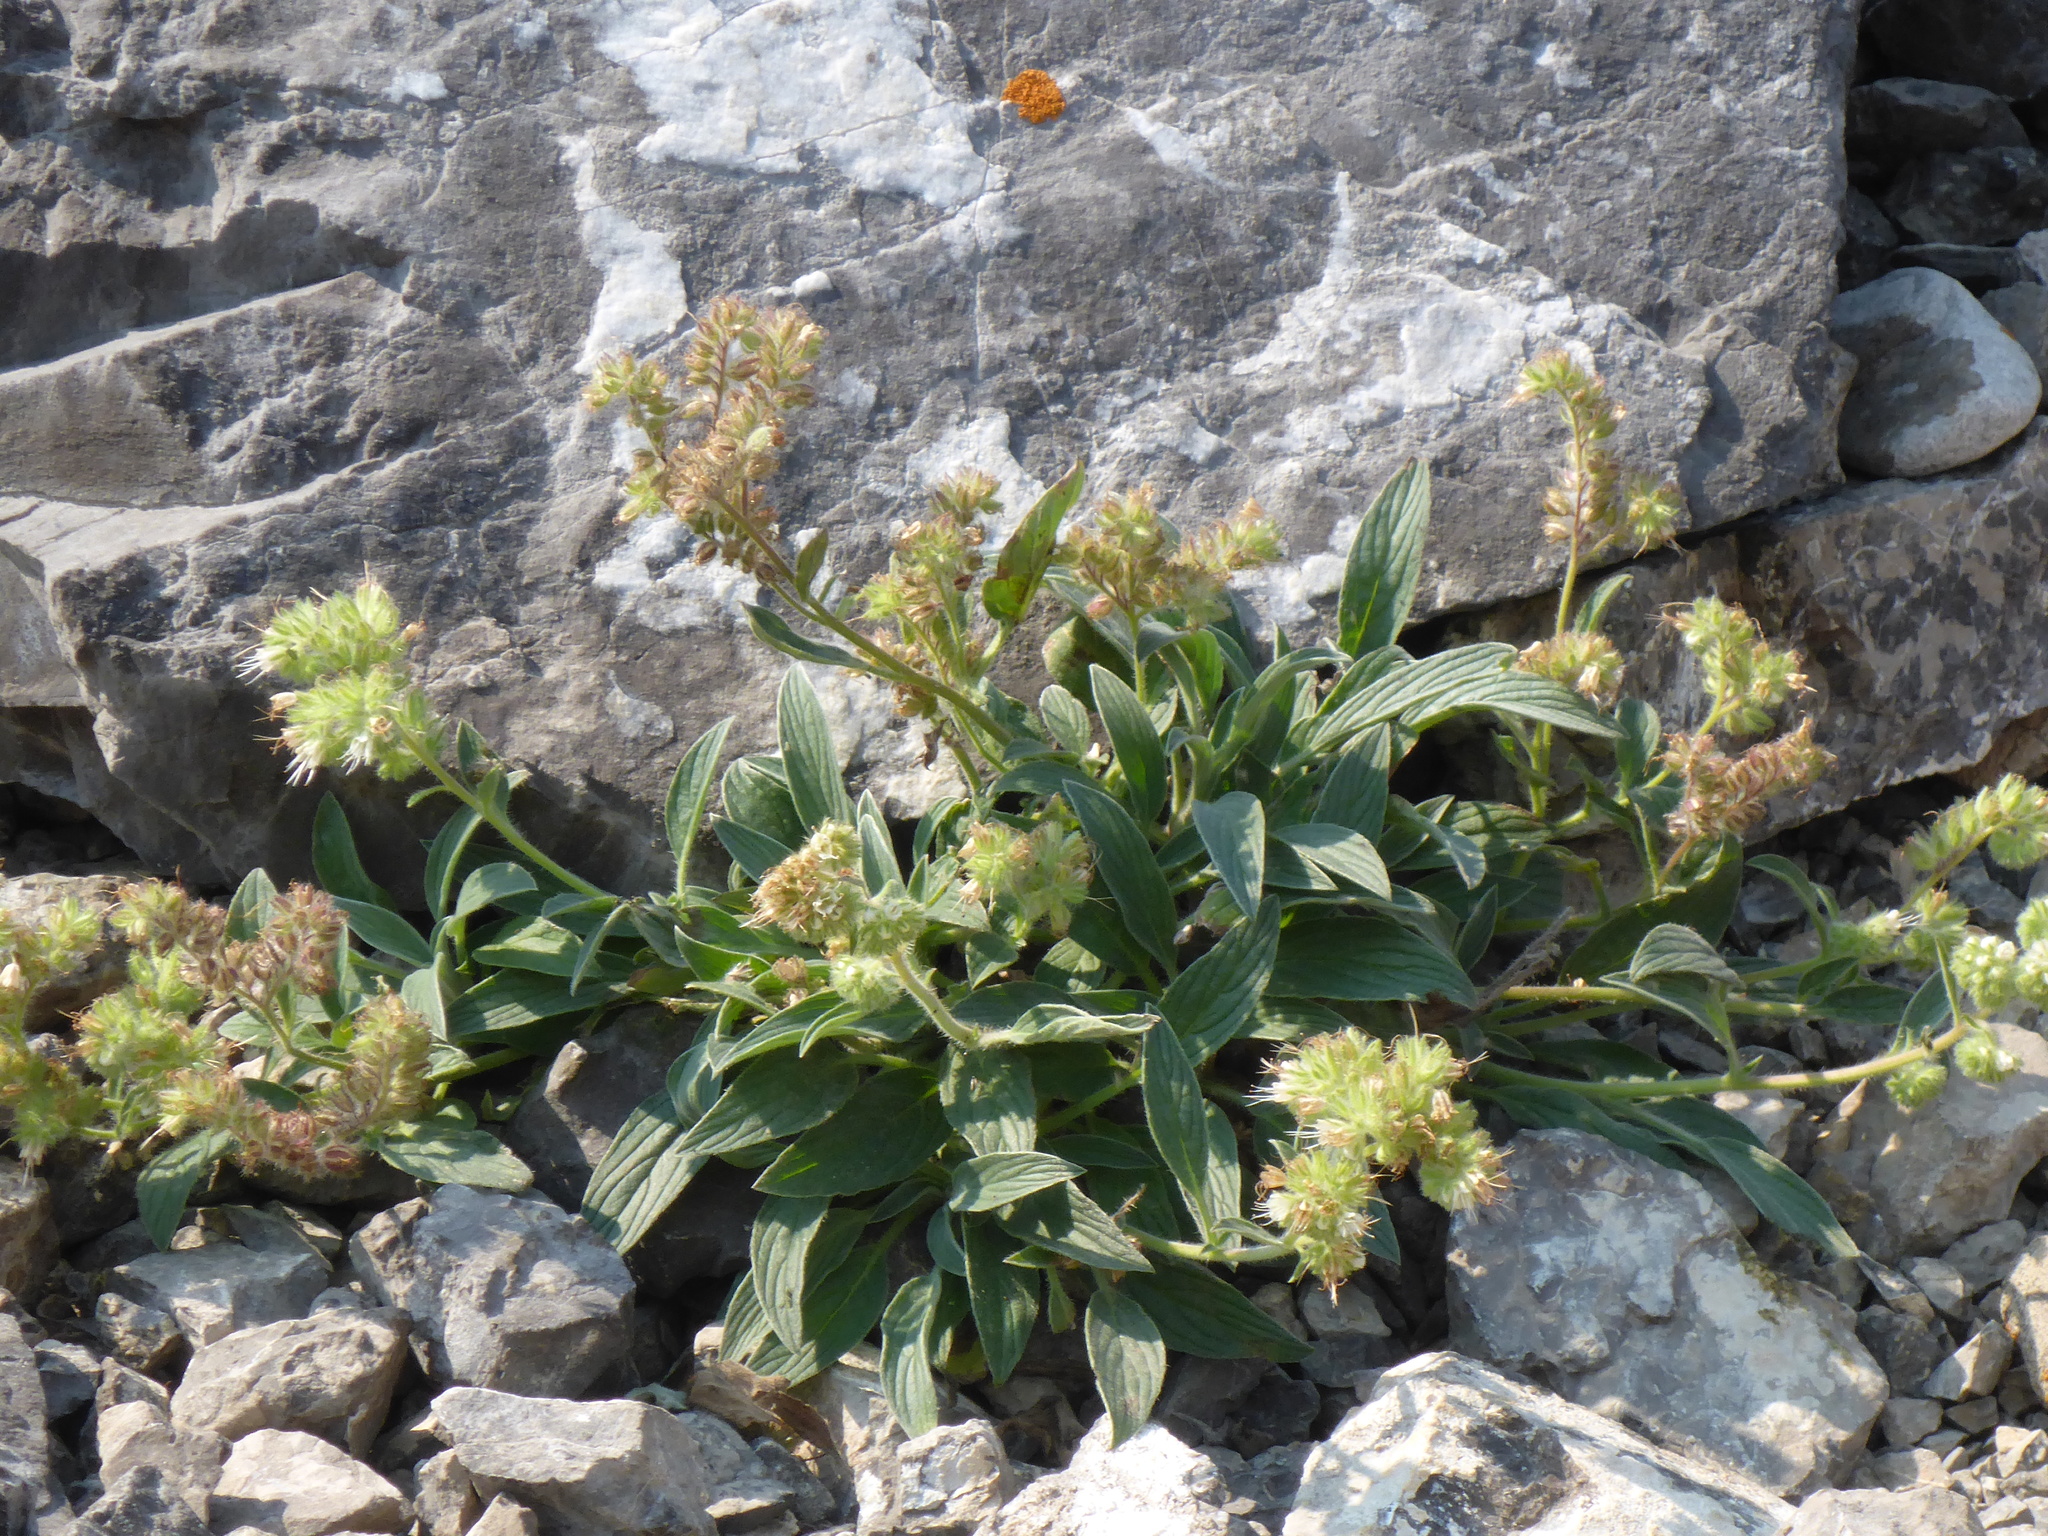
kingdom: Plantae
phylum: Tracheophyta
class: Magnoliopsida
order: Boraginales
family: Hydrophyllaceae
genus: Phacelia
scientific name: Phacelia hastata
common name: Silver-leaved phacelia
